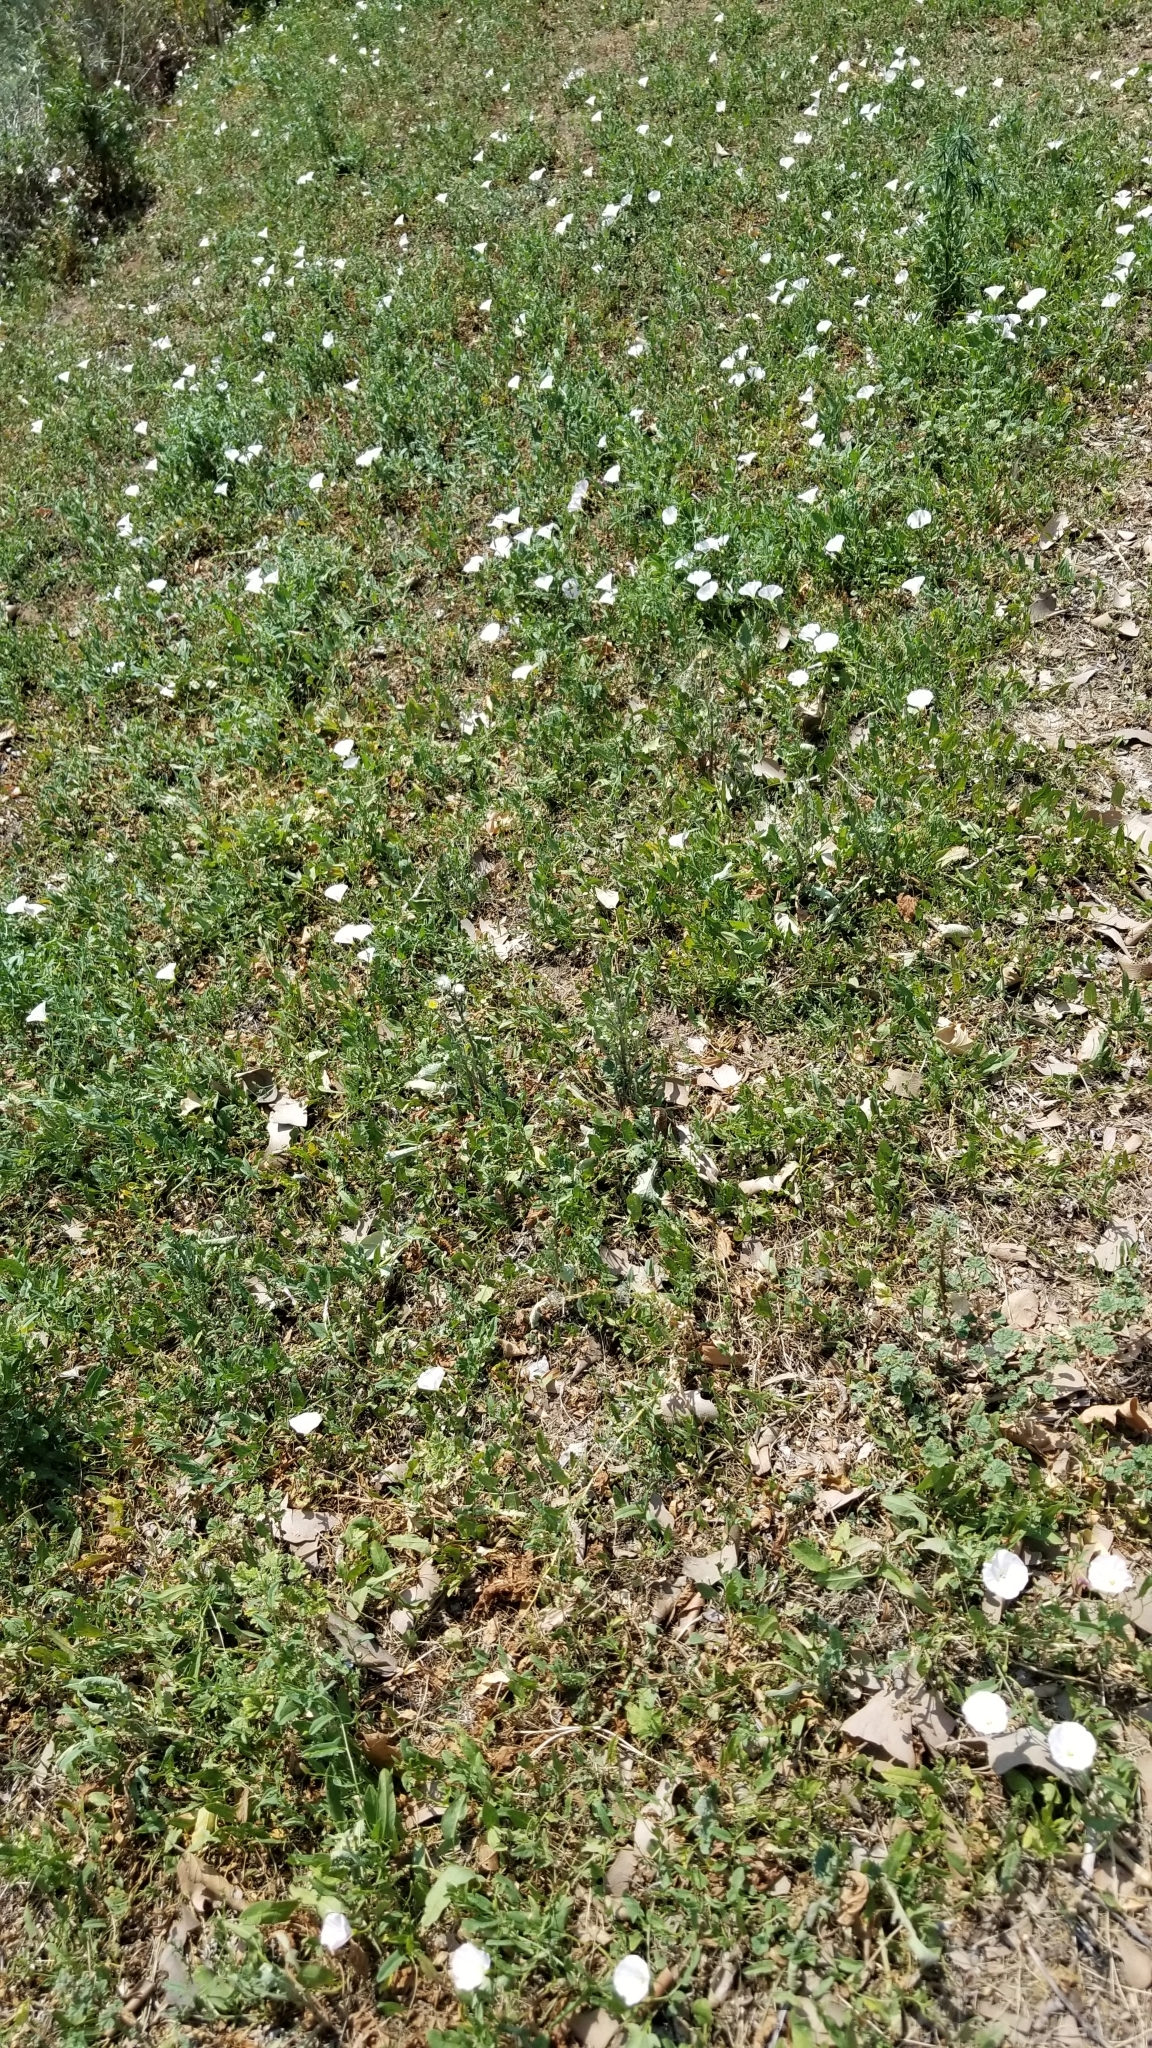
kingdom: Plantae
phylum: Tracheophyta
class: Magnoliopsida
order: Solanales
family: Convolvulaceae
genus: Convolvulus
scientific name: Convolvulus arvensis
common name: Field bindweed
